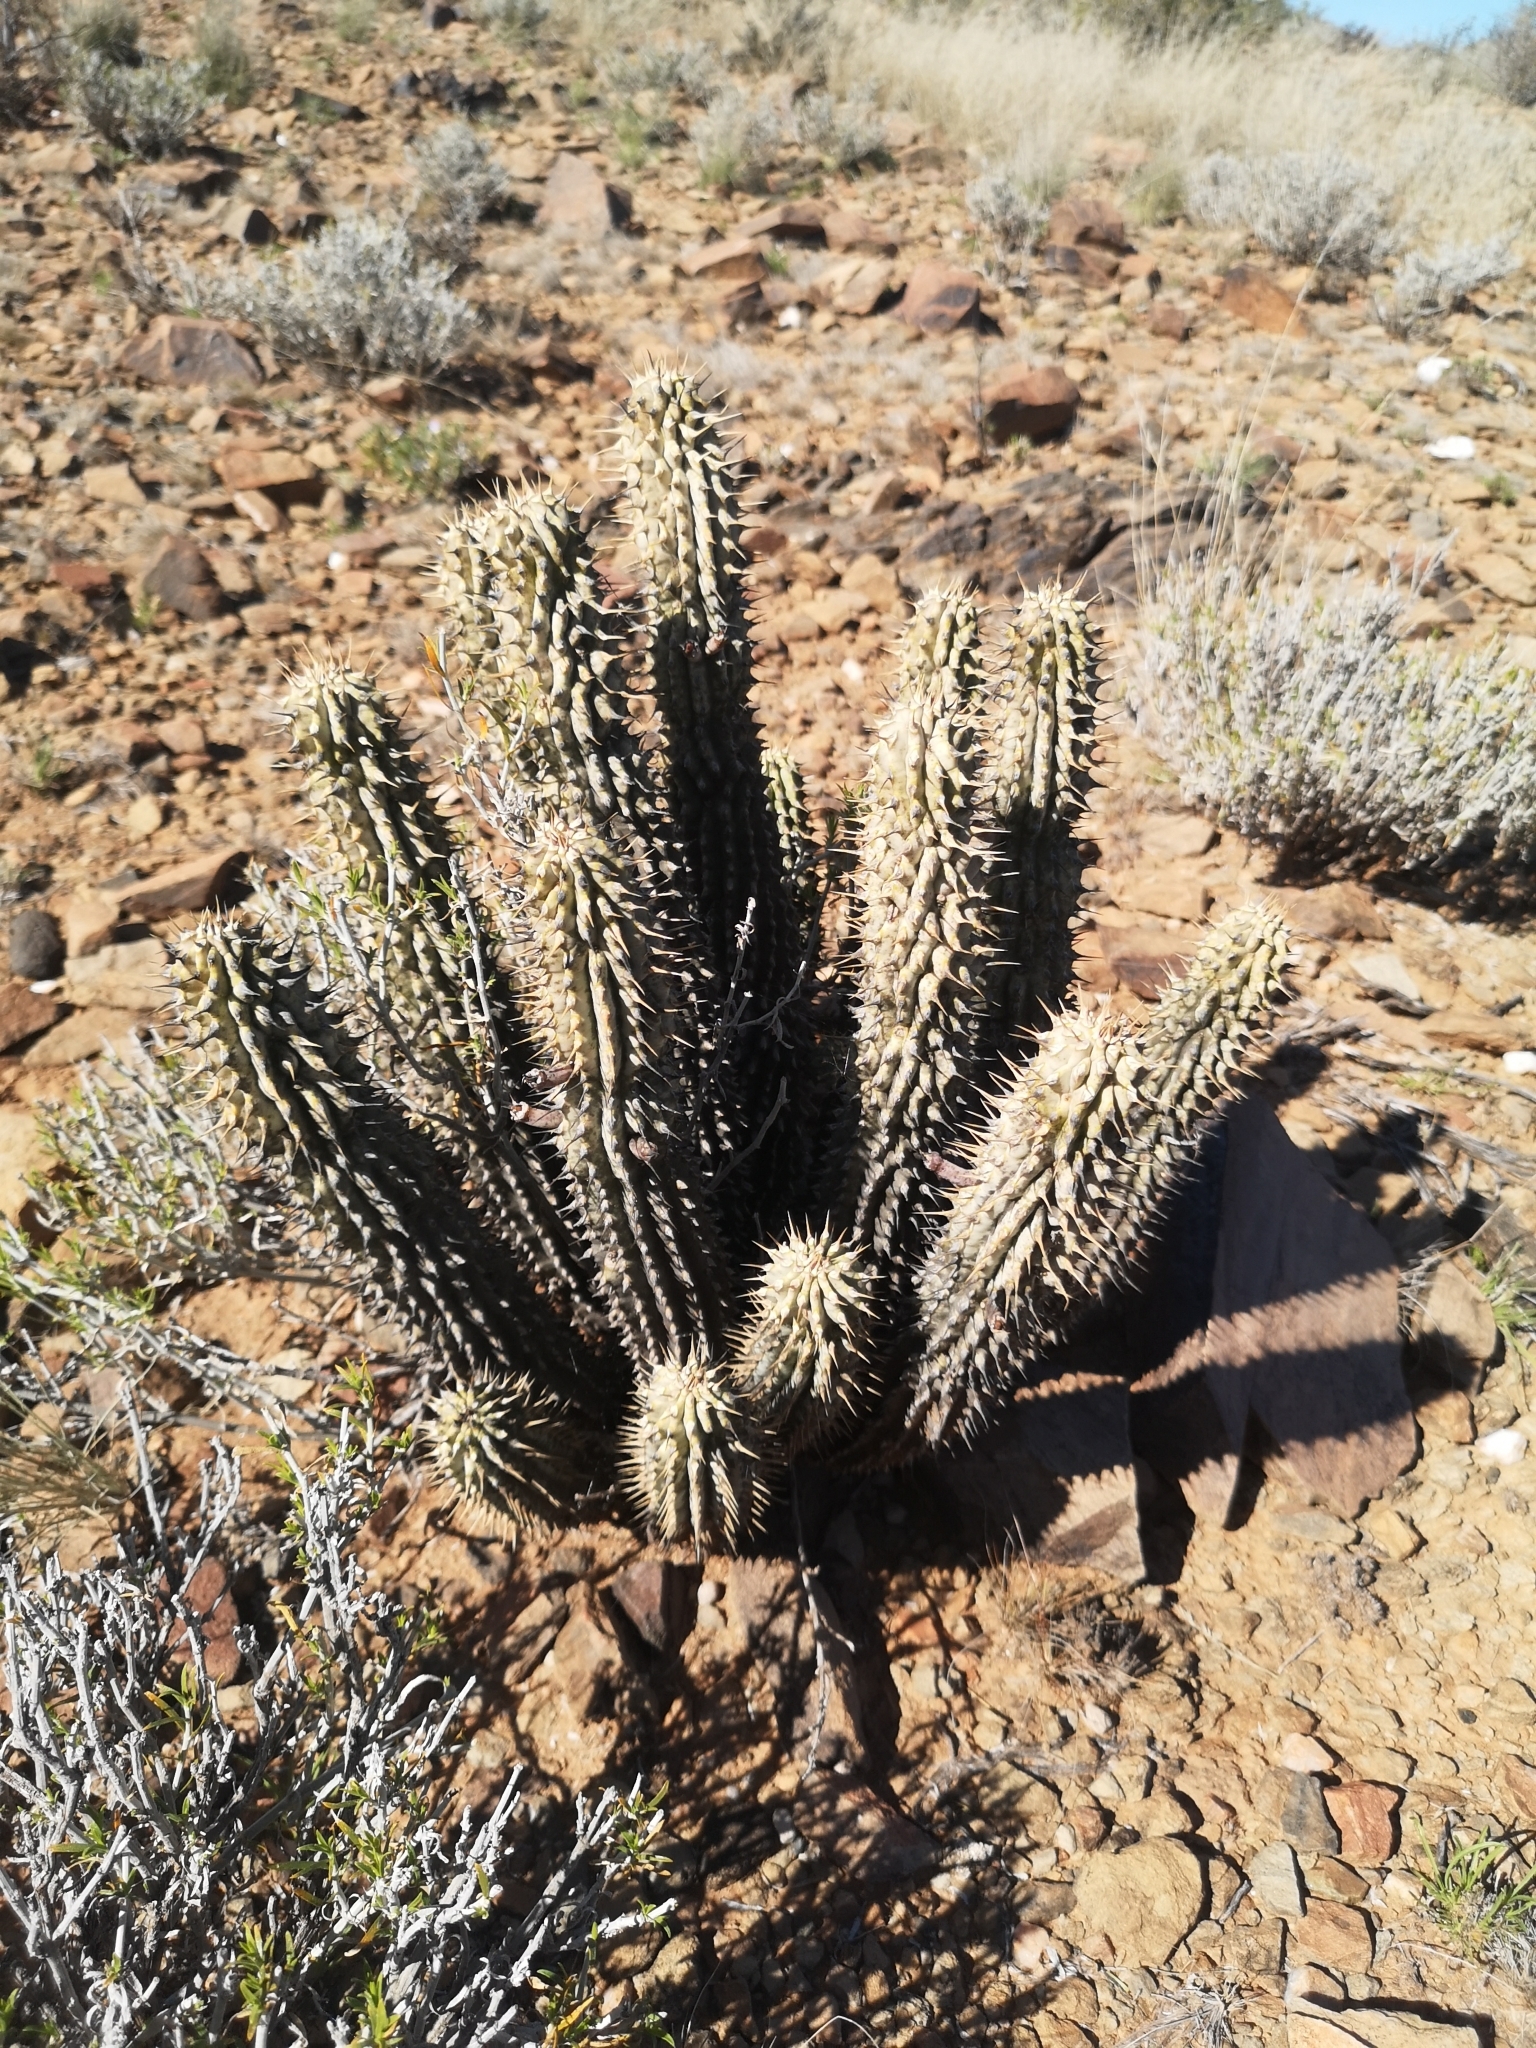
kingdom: Plantae
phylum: Tracheophyta
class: Magnoliopsida
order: Gentianales
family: Apocynaceae
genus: Hoodia
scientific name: Hoodia gordonii
